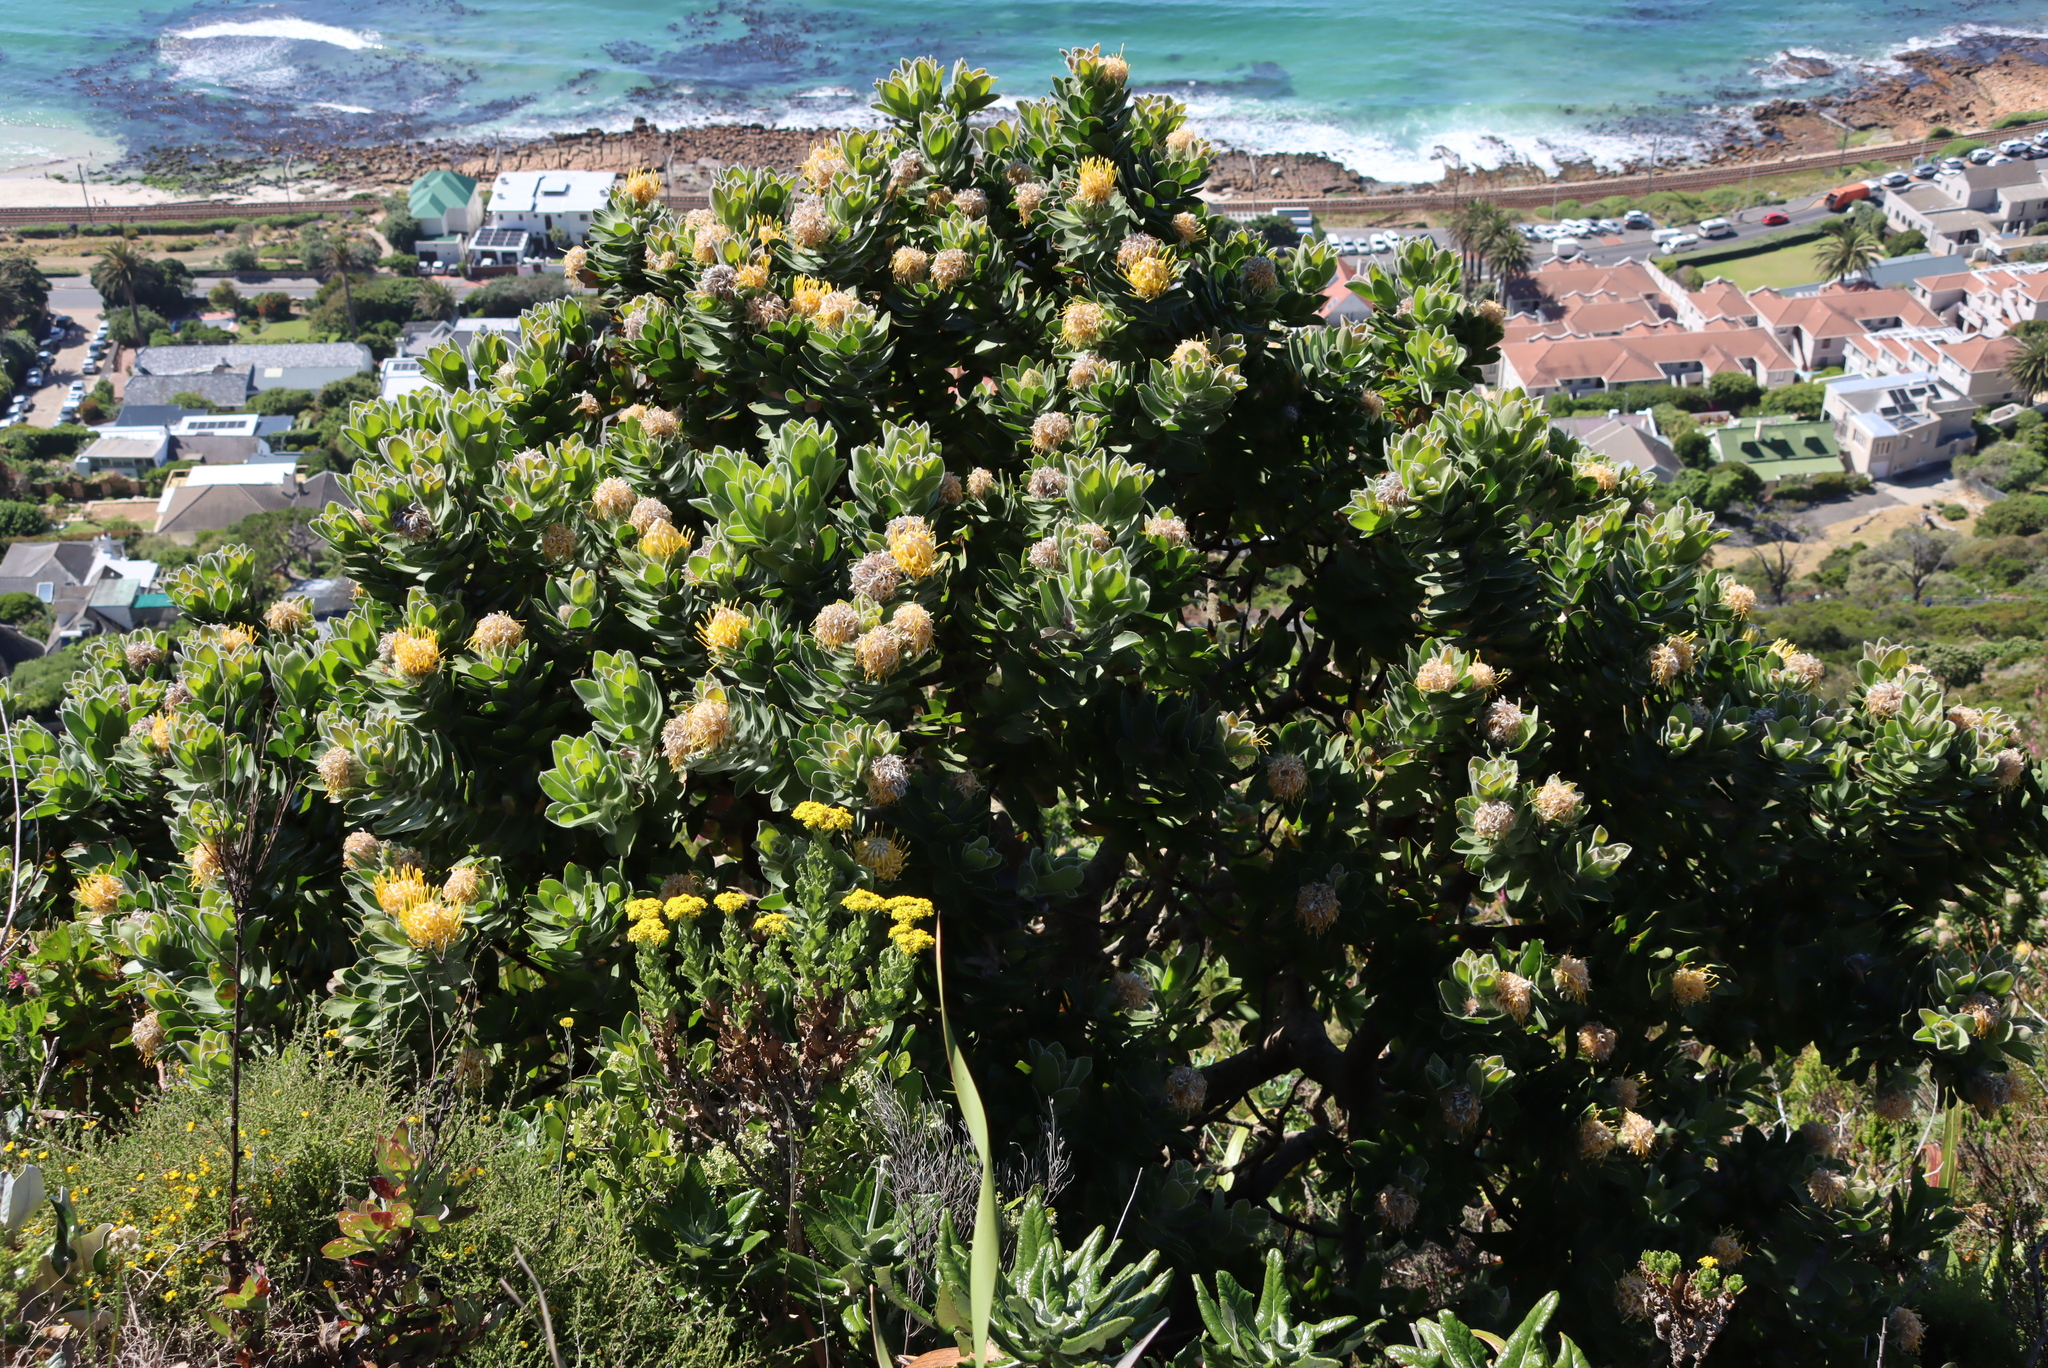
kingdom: Plantae
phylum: Tracheophyta
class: Magnoliopsida
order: Proteales
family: Proteaceae
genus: Leucospermum
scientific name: Leucospermum conocarpodendron
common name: Tree pincushion
